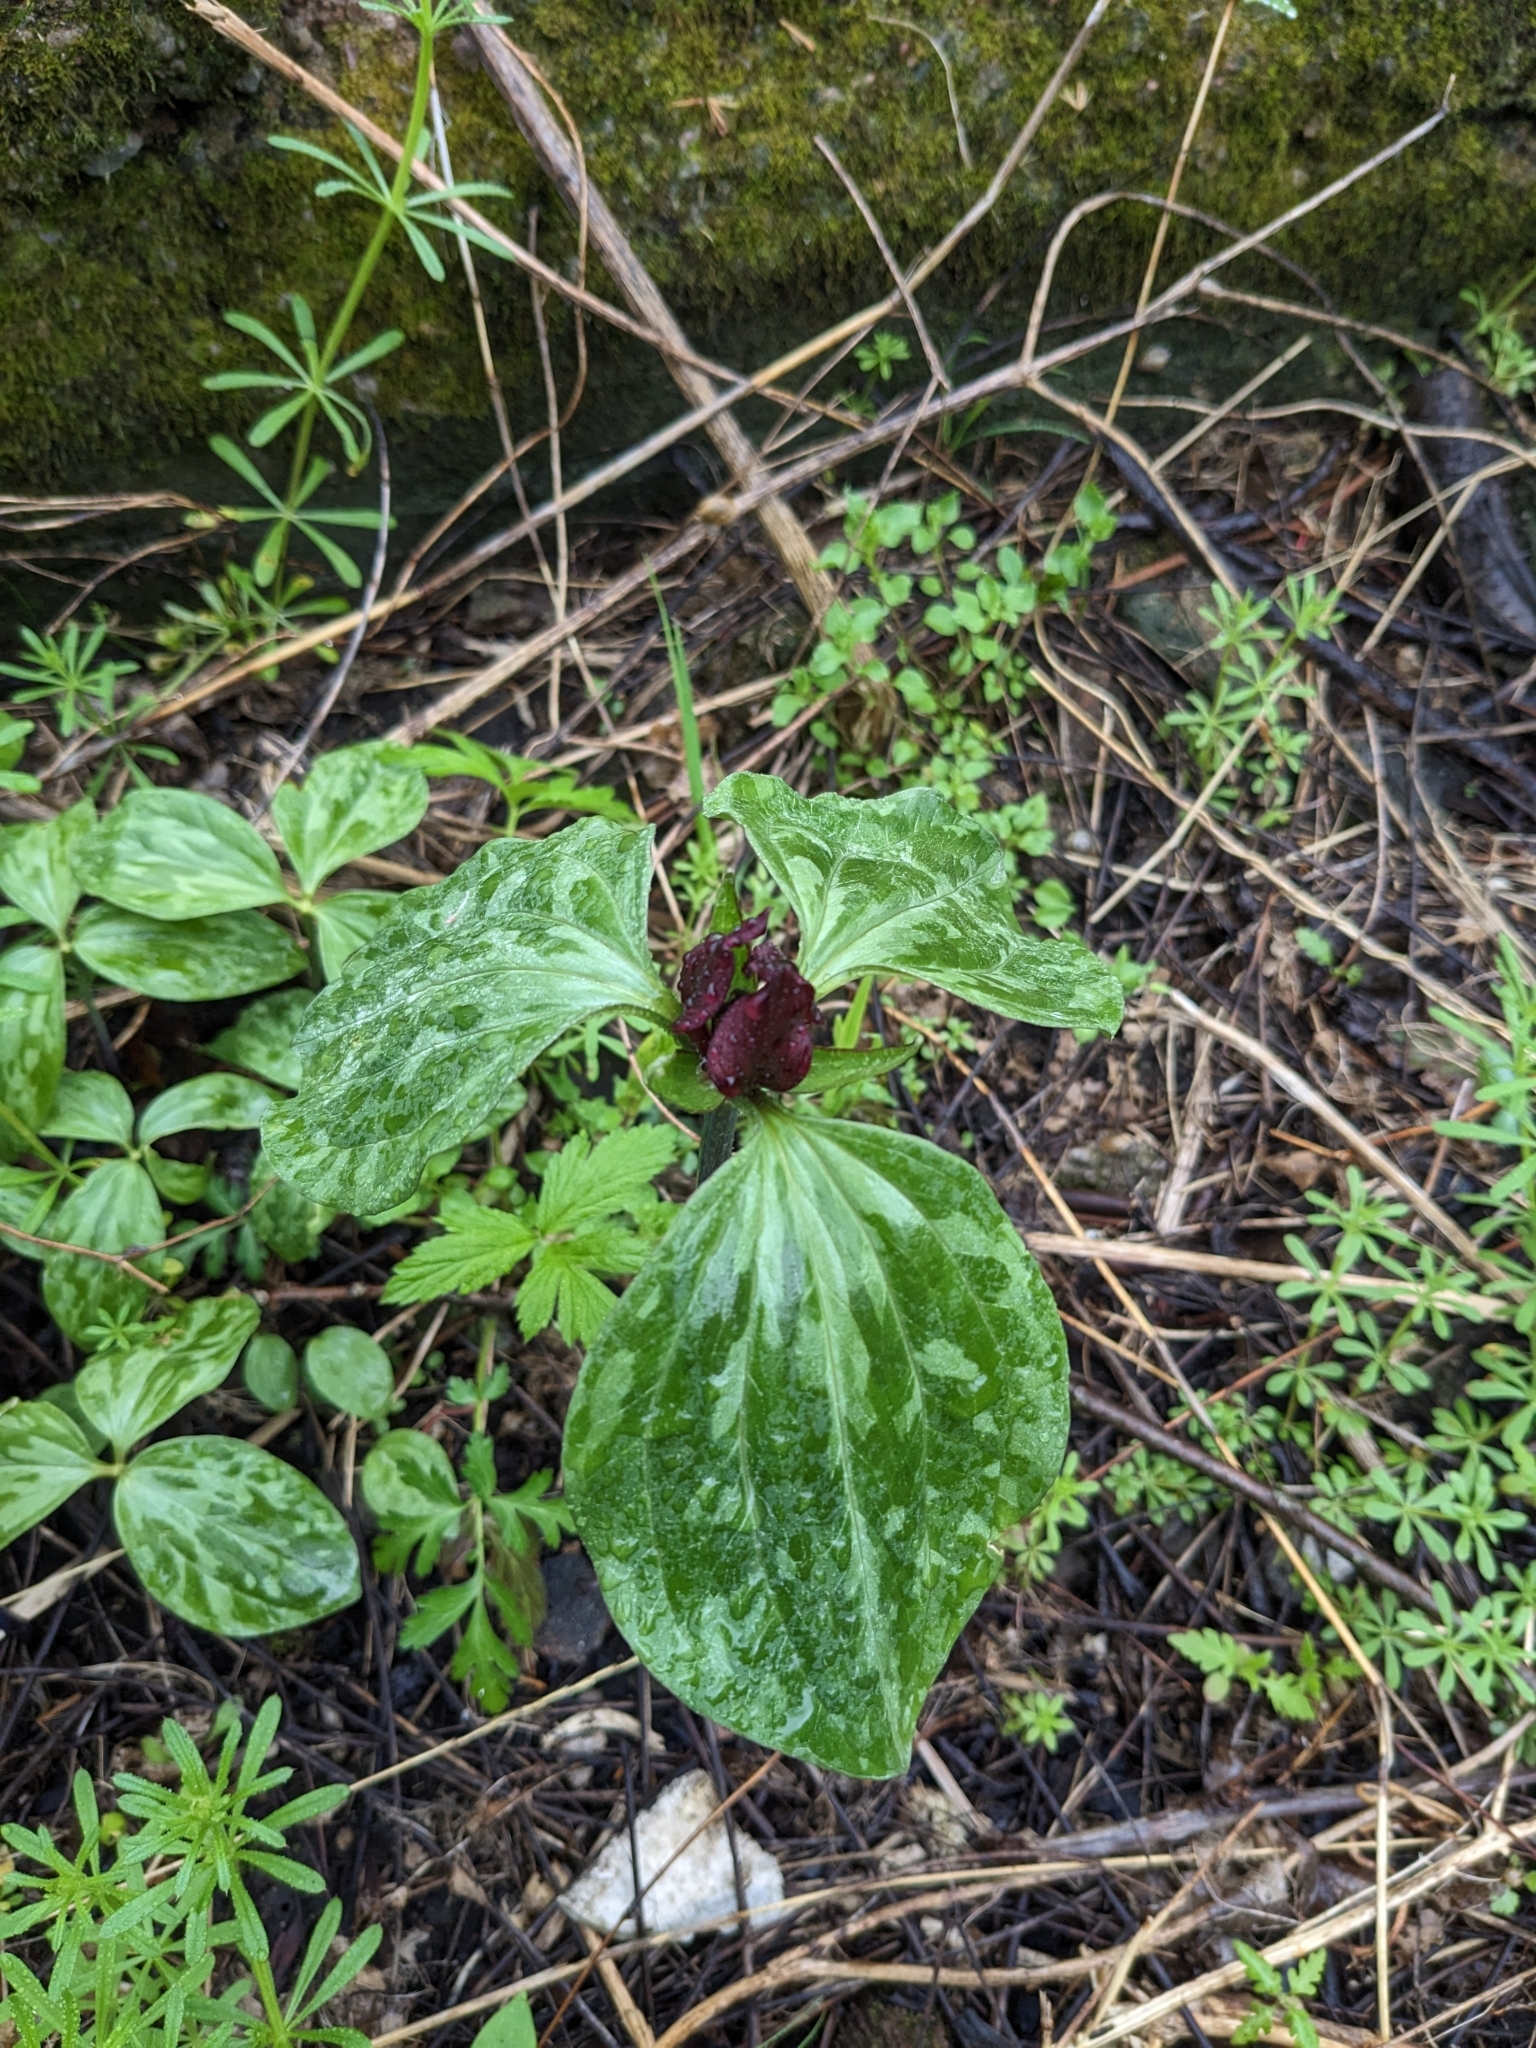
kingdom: Plantae
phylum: Tracheophyta
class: Liliopsida
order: Liliales
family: Melanthiaceae
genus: Trillium
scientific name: Trillium recurvatum
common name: Bloody butcher
